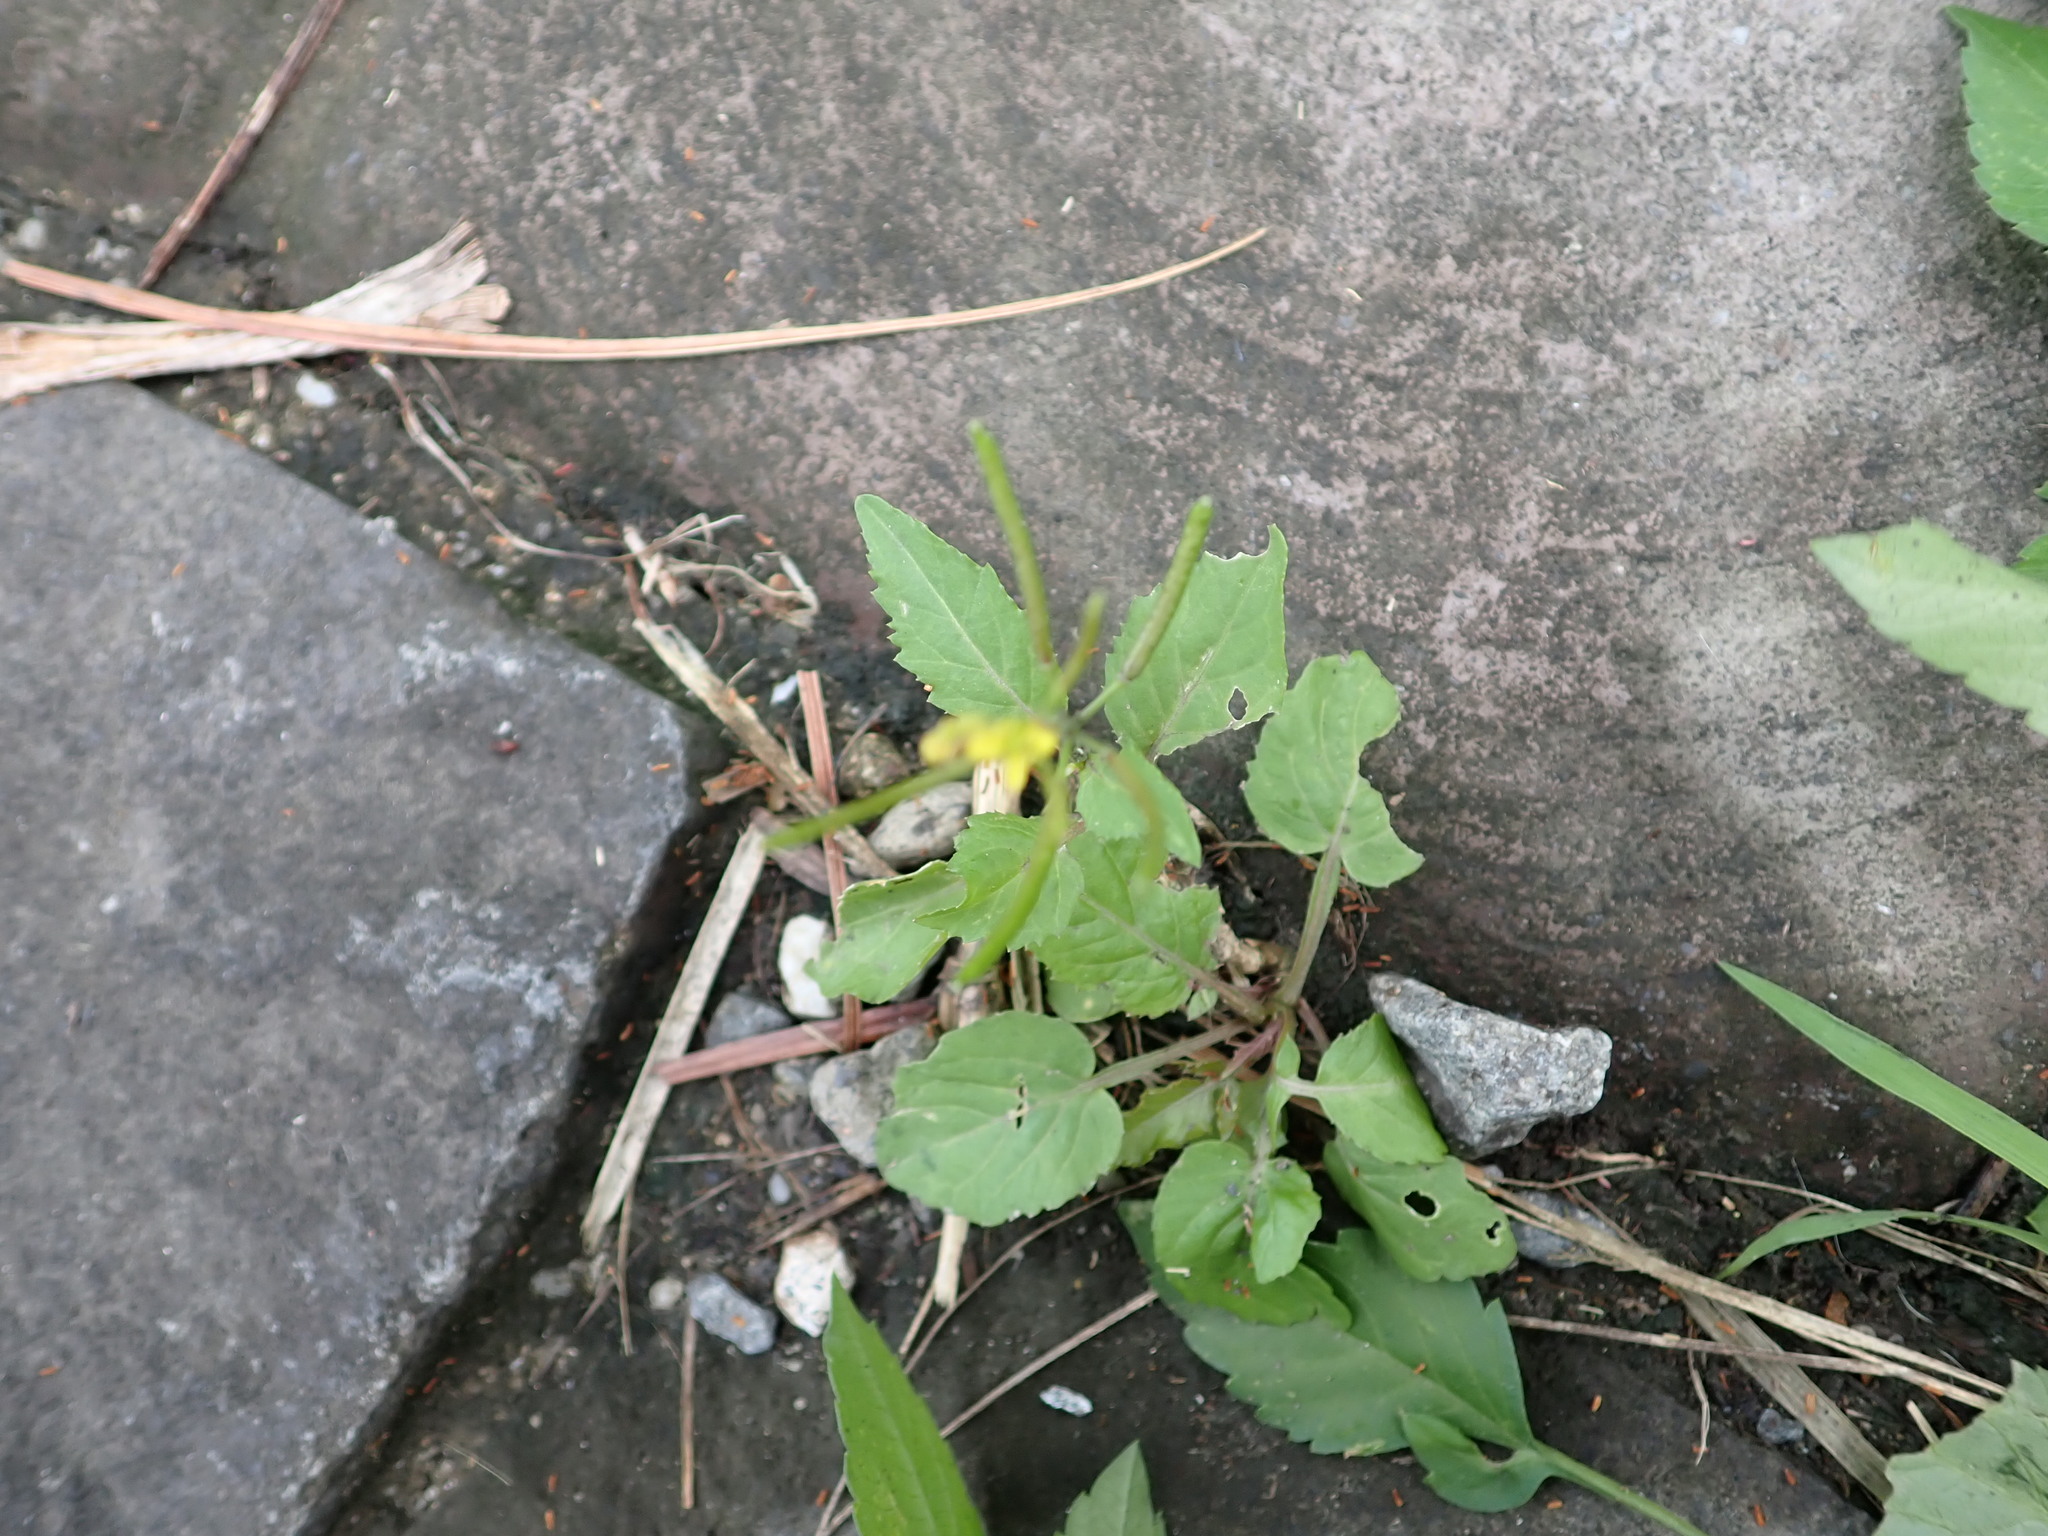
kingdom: Plantae
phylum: Tracheophyta
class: Magnoliopsida
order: Brassicales
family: Brassicaceae
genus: Rorippa
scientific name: Rorippa indica
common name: Variableleaf yellowcress
